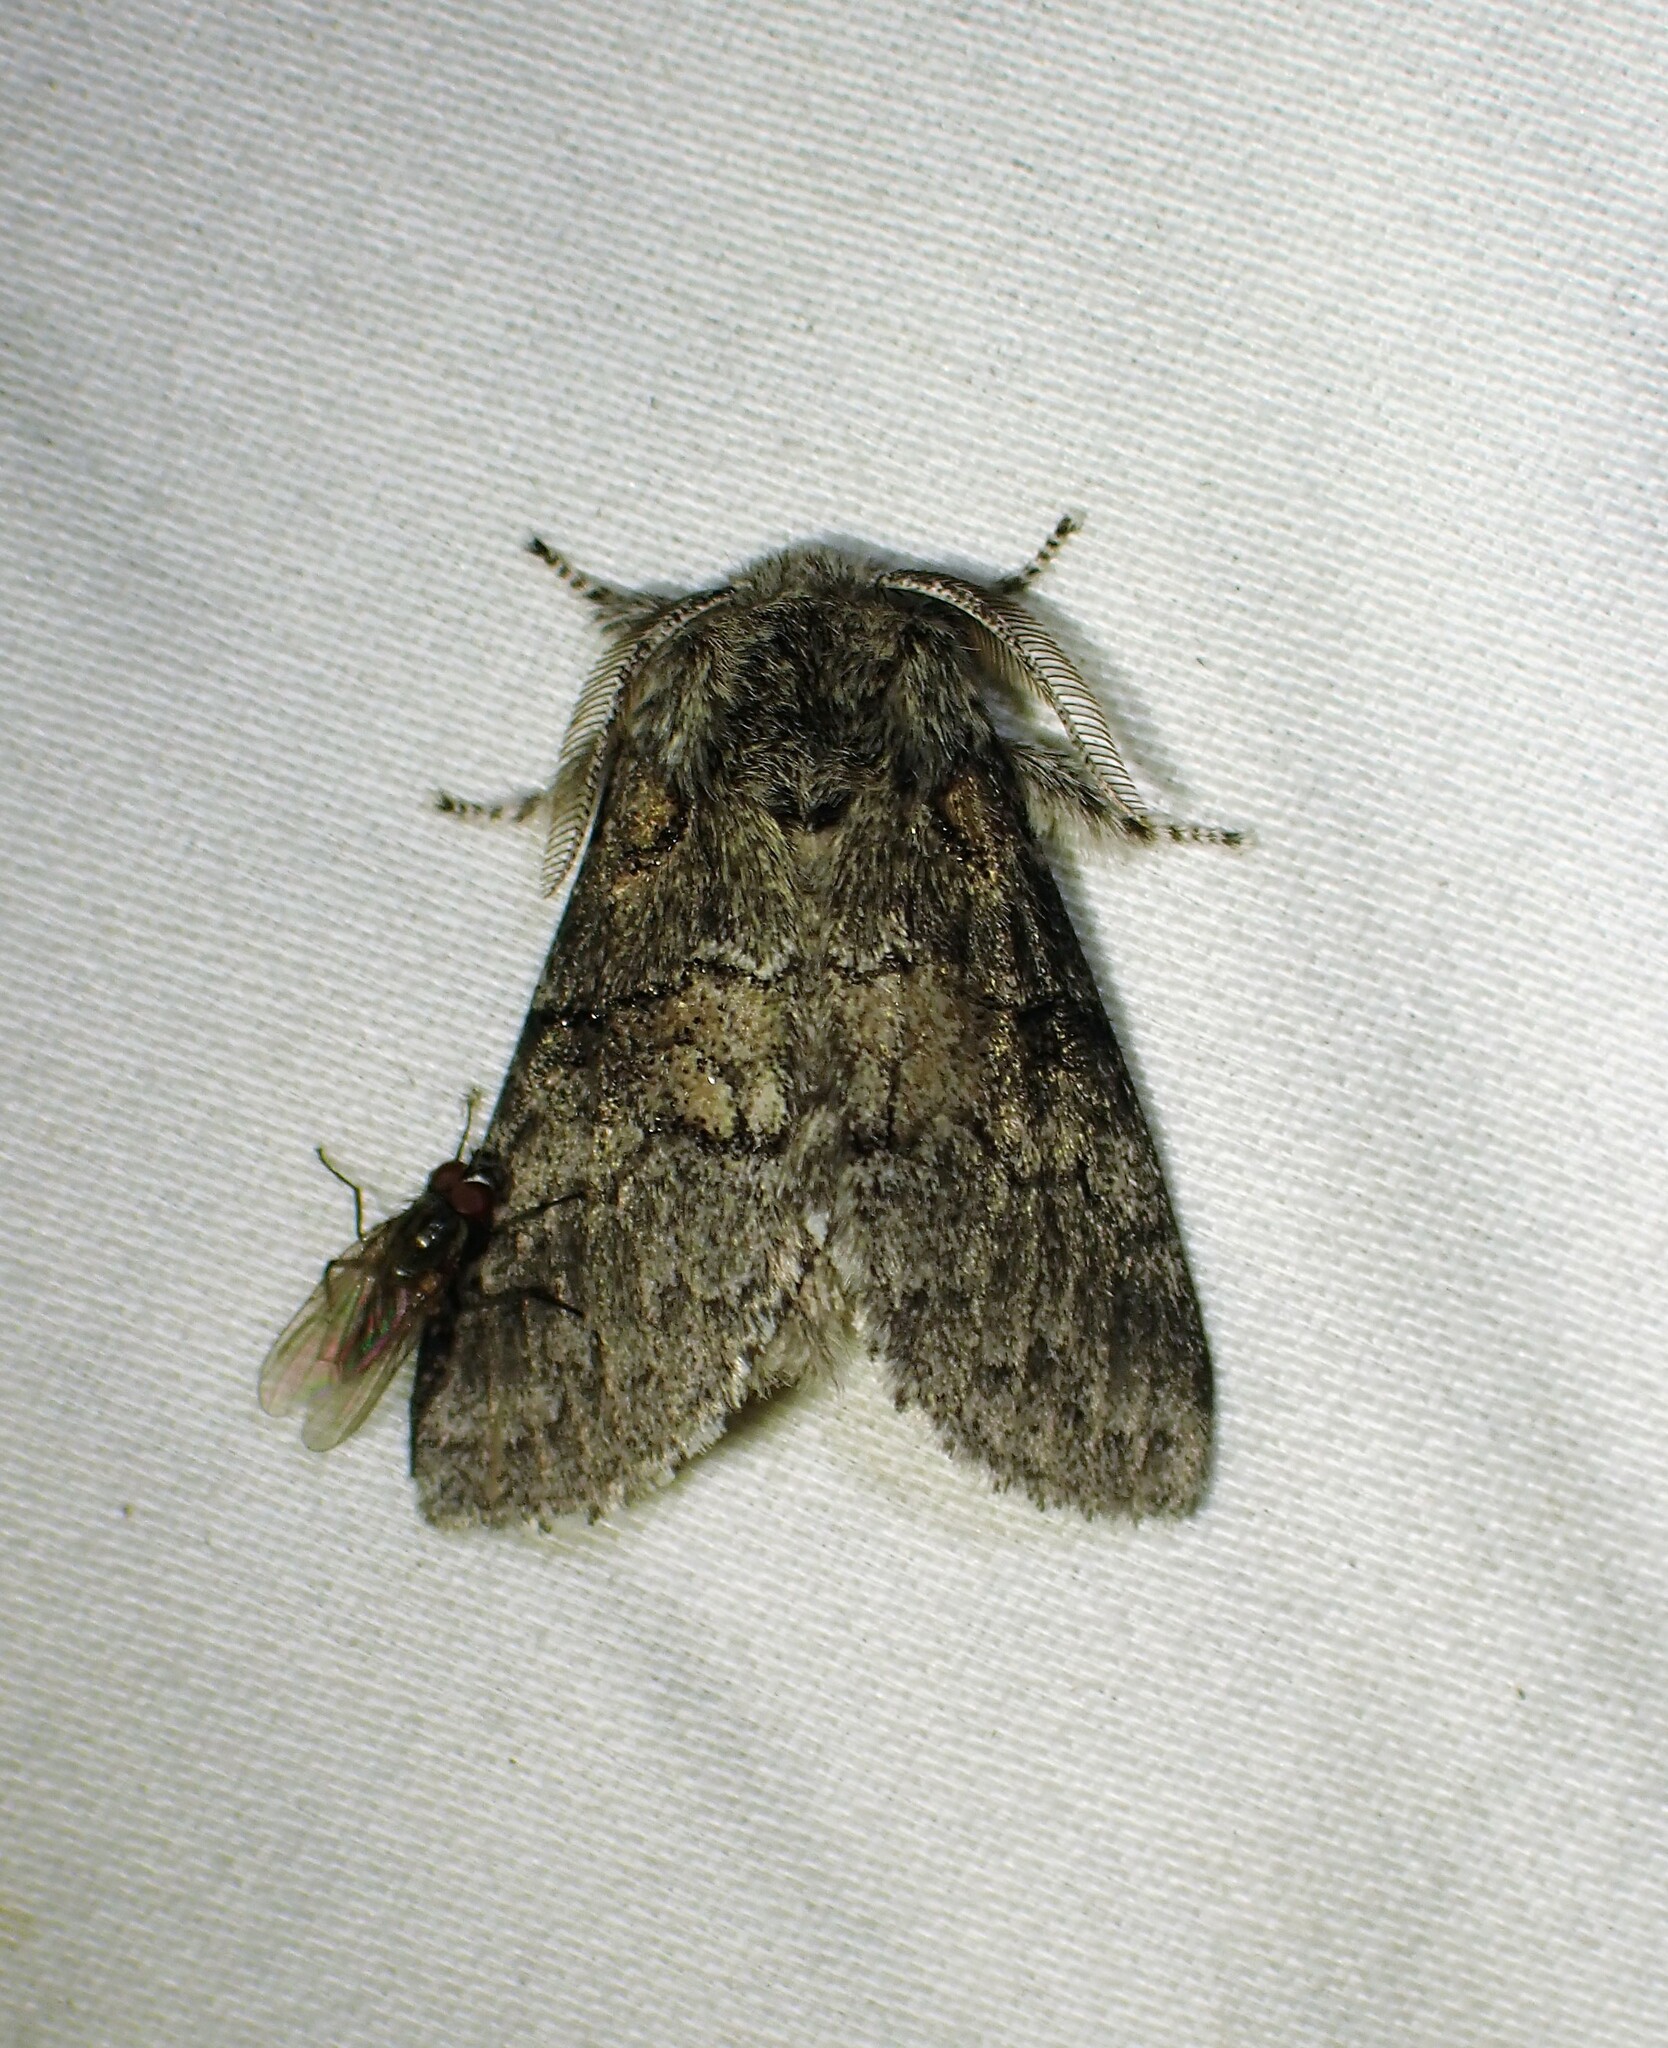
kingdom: Animalia
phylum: Arthropoda
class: Insecta
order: Lepidoptera
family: Notodontidae
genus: Gluphisia
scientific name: Gluphisia septentrionis
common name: Common gluphisia
